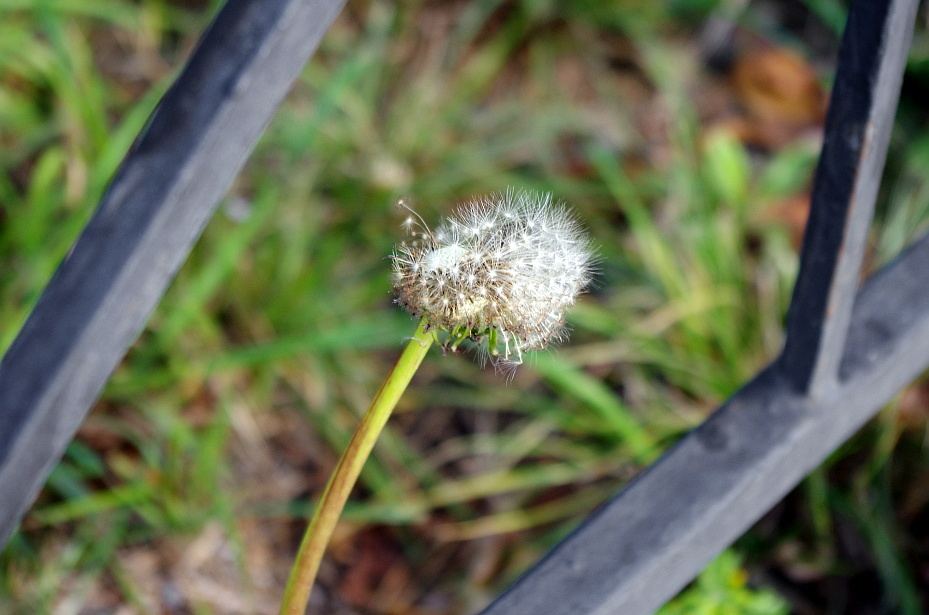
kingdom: Plantae
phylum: Tracheophyta
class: Magnoliopsida
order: Asterales
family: Asteraceae
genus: Taraxacum
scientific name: Taraxacum officinale
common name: Common dandelion
